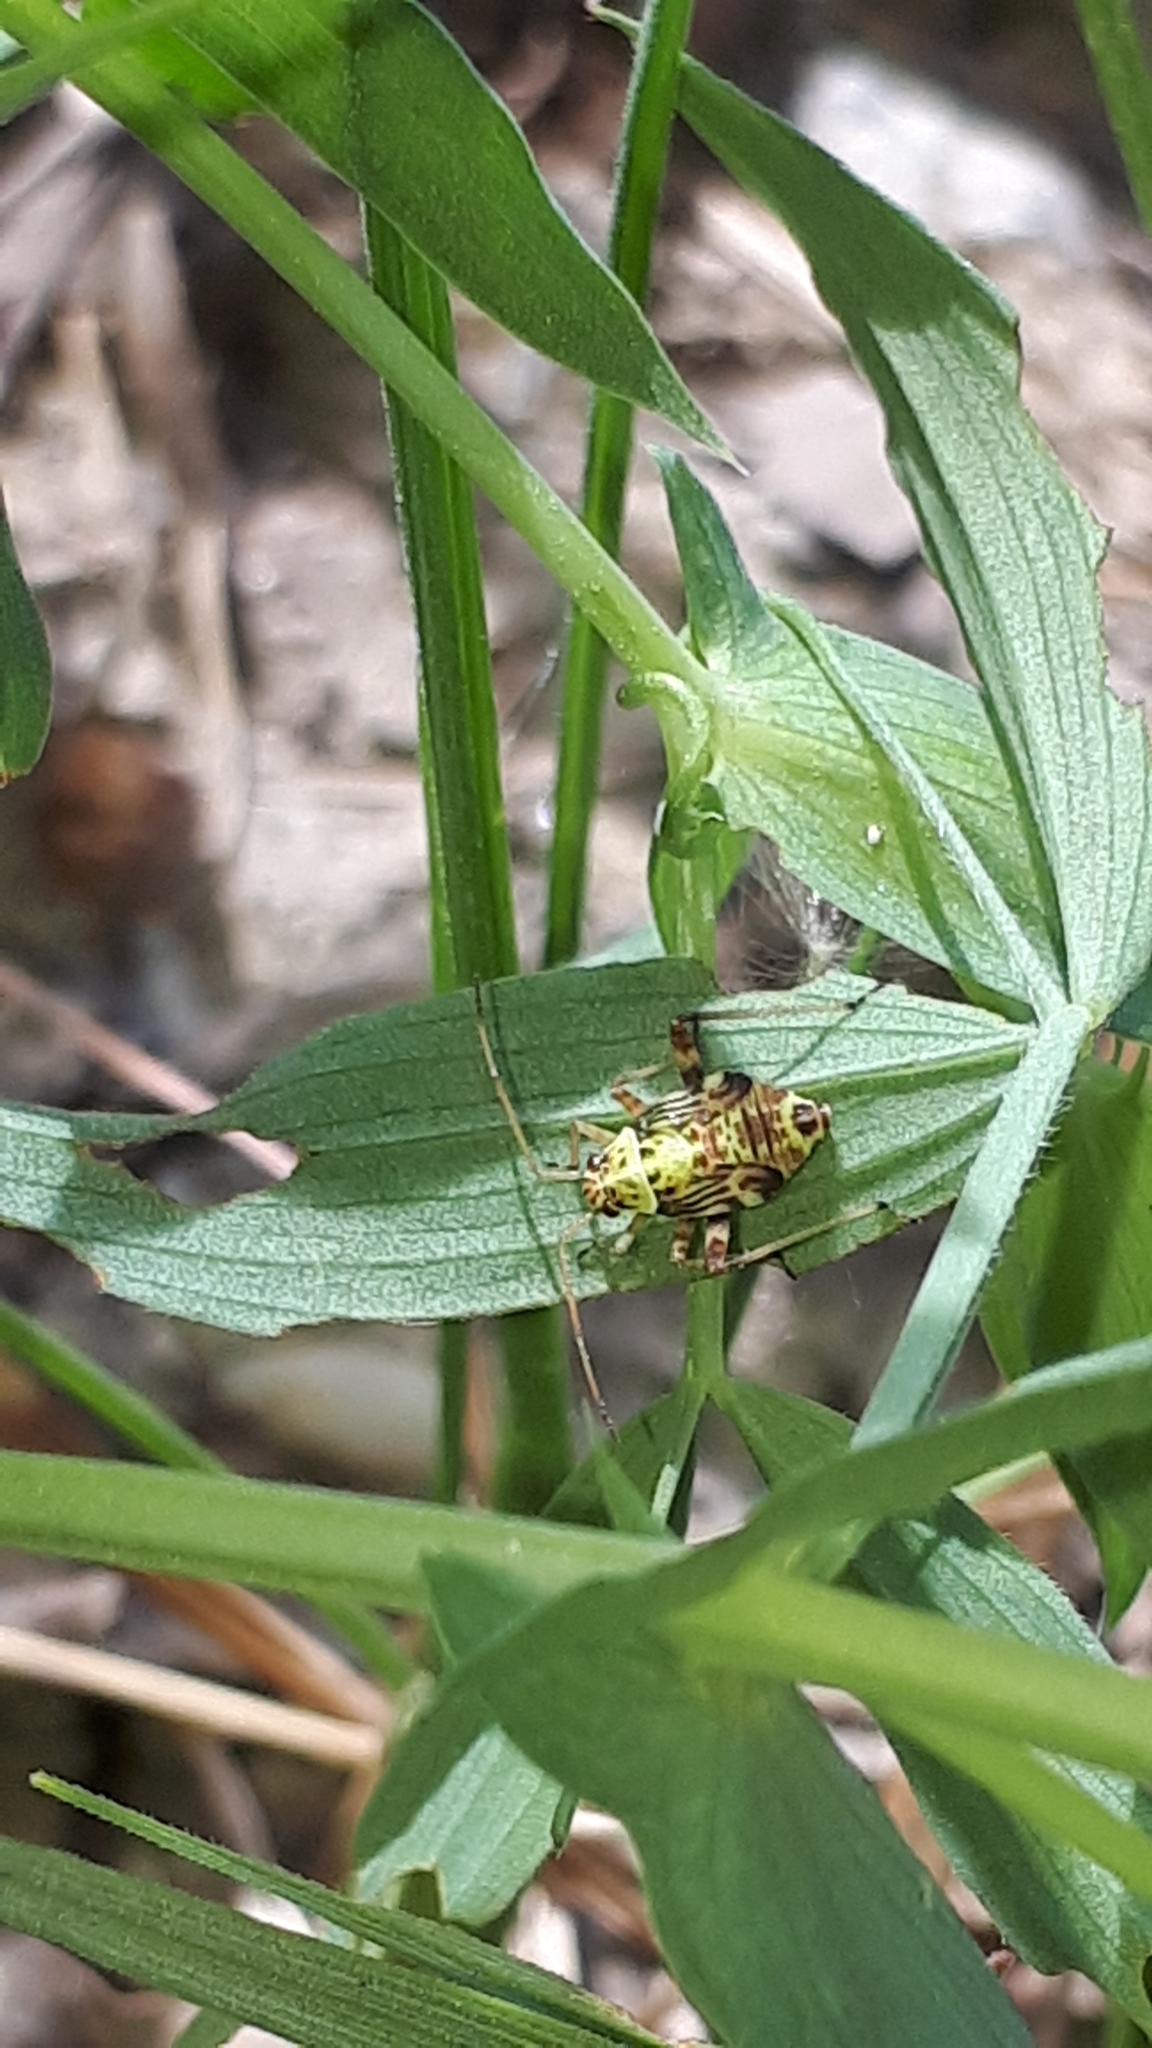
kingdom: Animalia
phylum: Arthropoda
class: Insecta
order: Hemiptera
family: Miridae
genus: Rhabdomiris
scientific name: Rhabdomiris striatellus
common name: Plant bug
